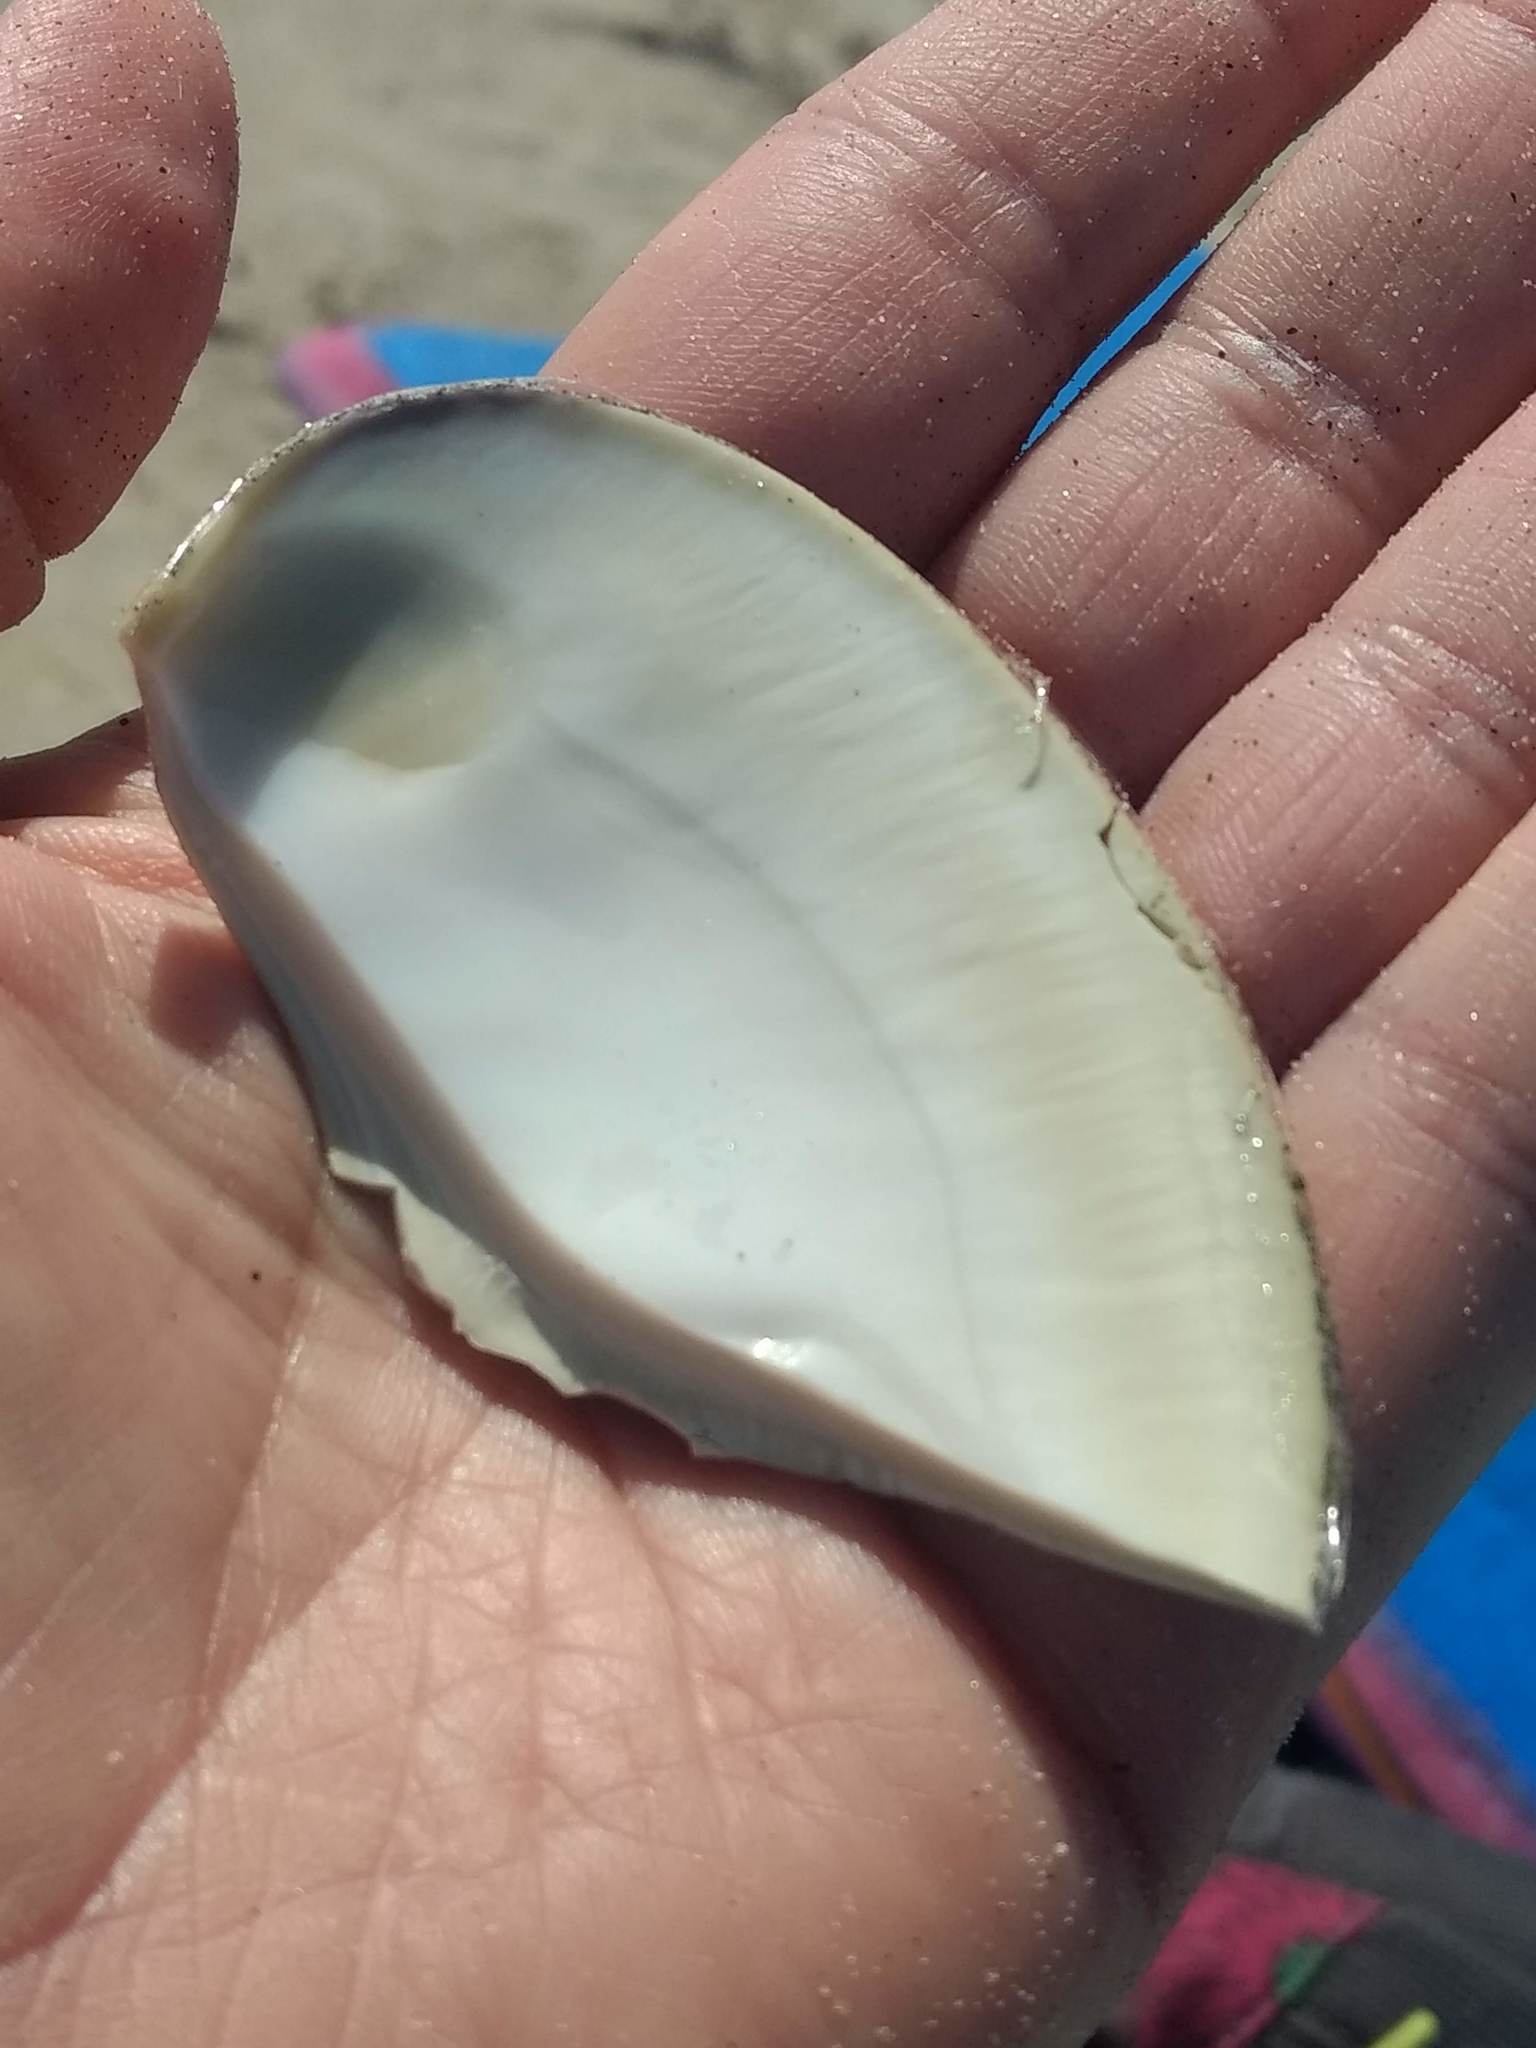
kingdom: Animalia
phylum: Mollusca
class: Bivalvia
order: Venerida
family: Veneridae
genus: Tivela
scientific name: Tivela stultorum
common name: Pismo clam
